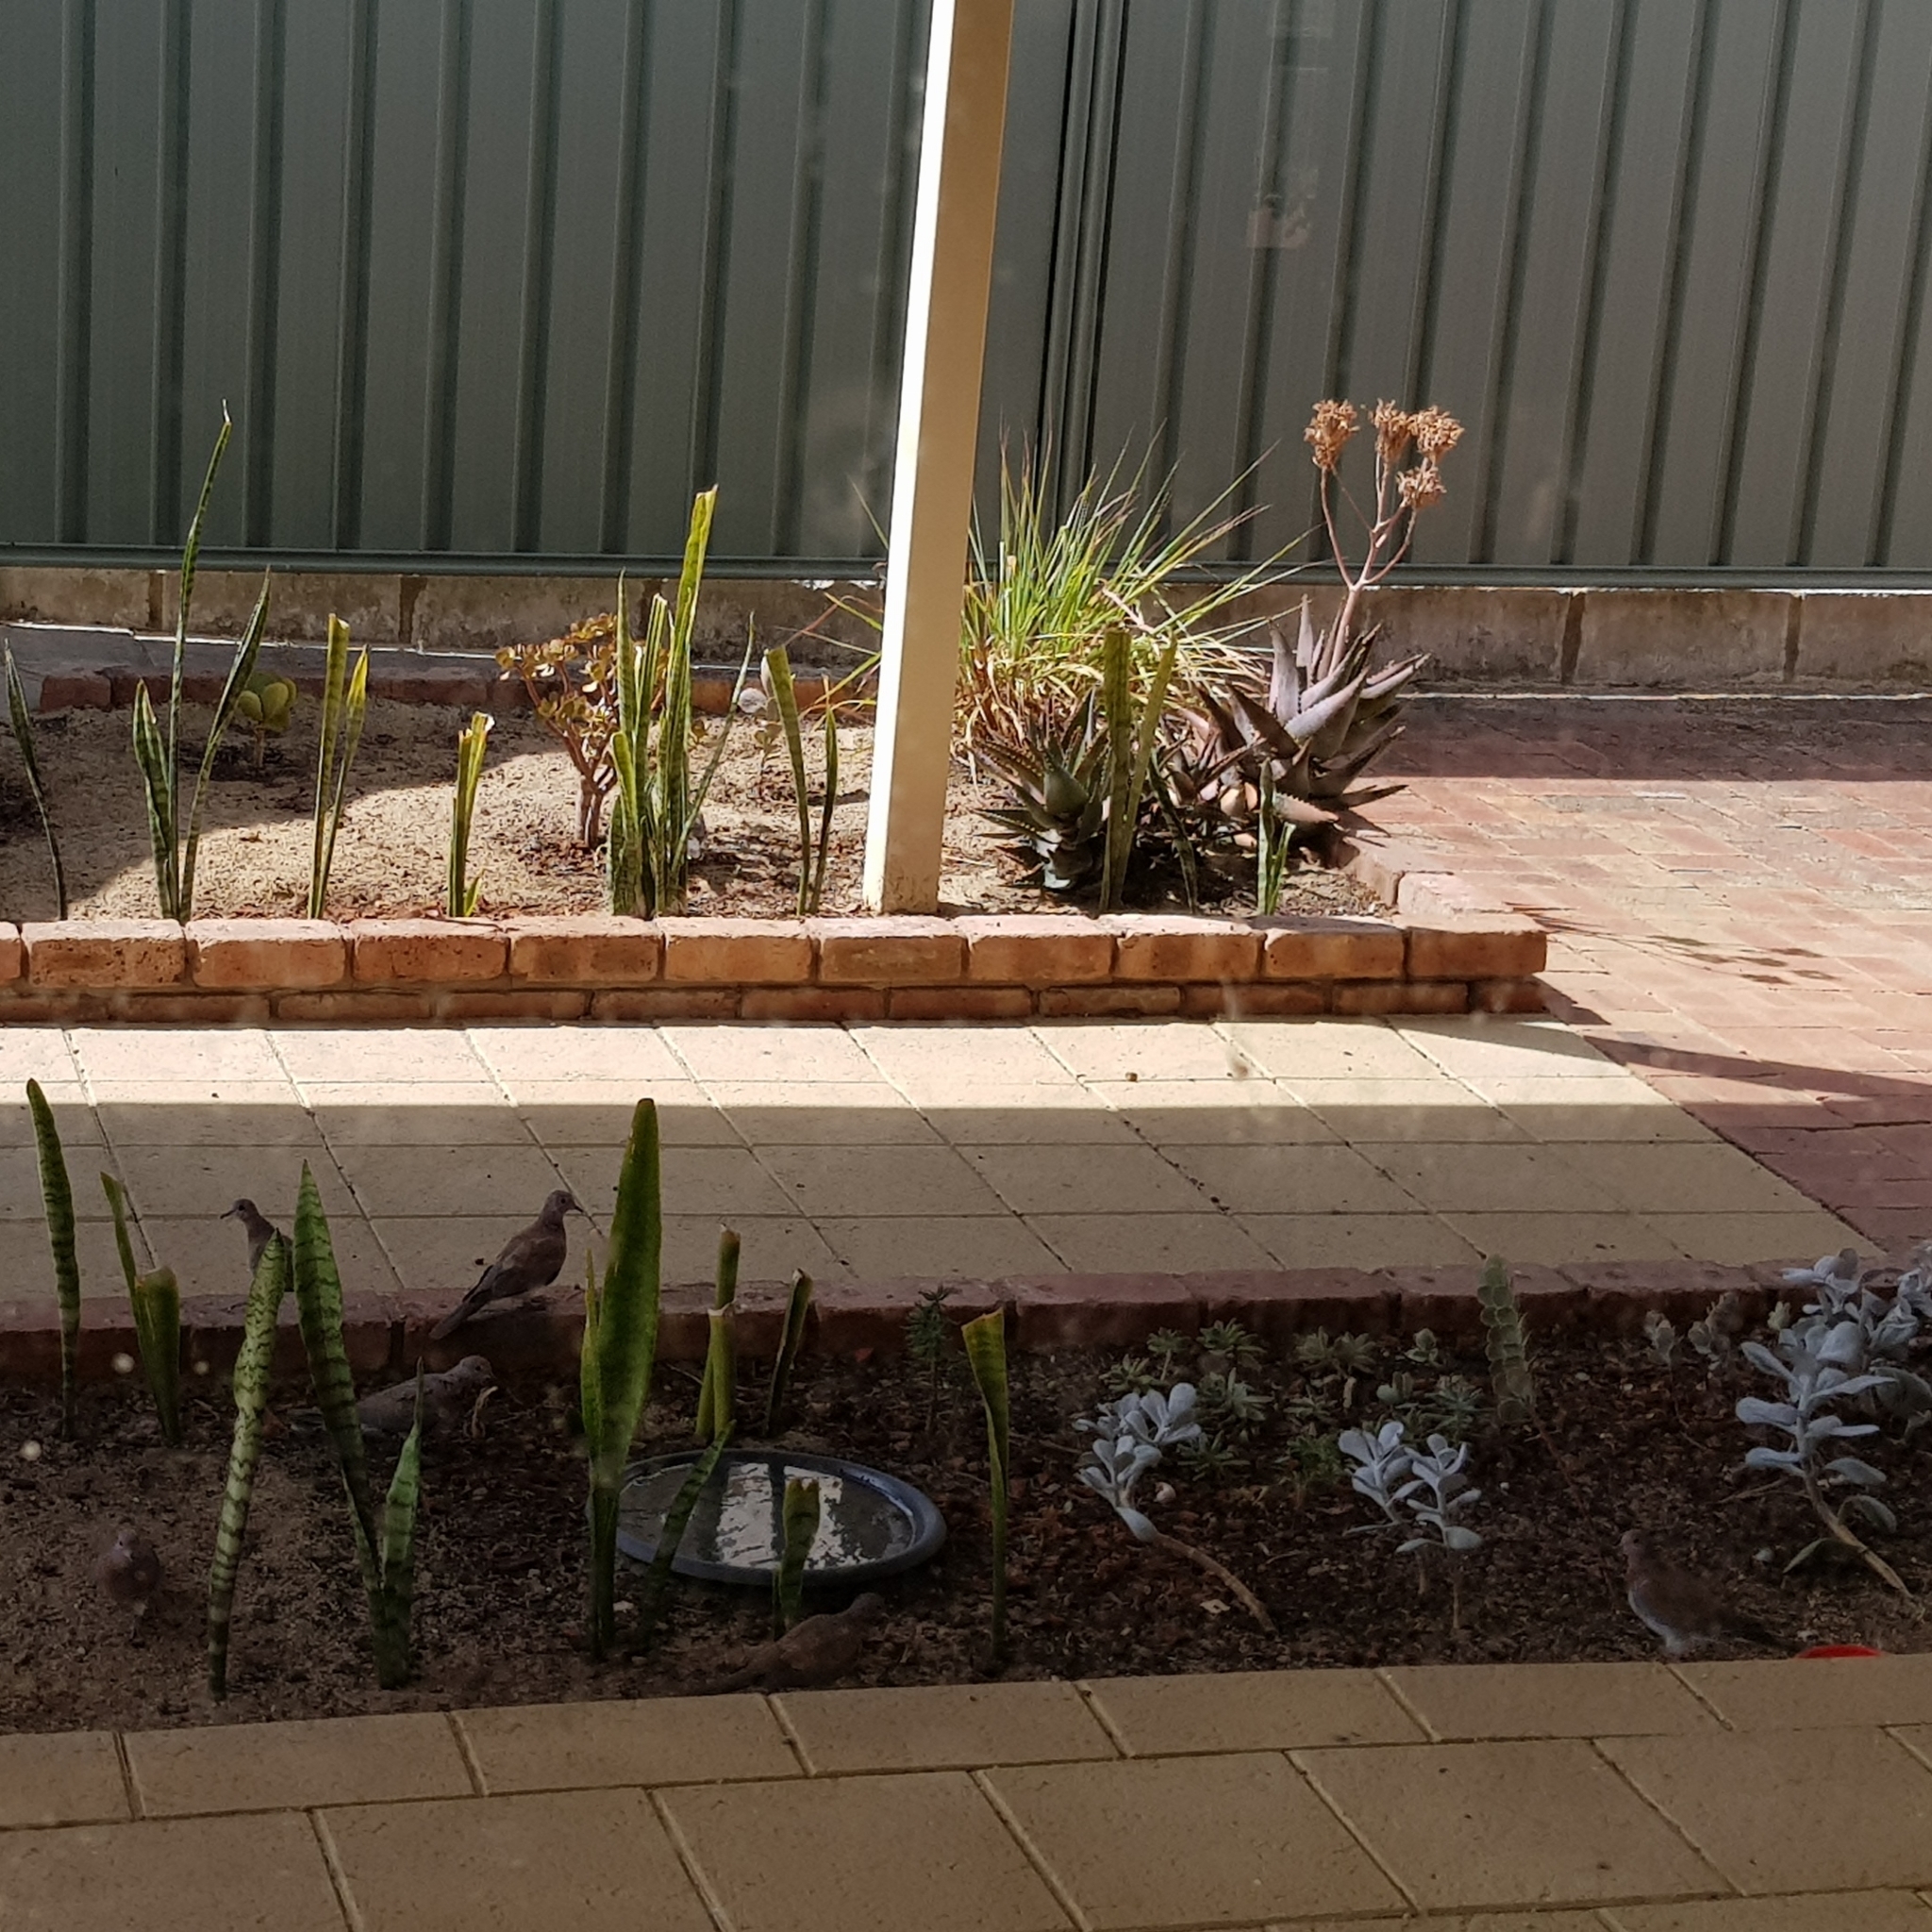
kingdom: Animalia
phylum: Chordata
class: Aves
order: Columbiformes
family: Columbidae
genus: Spilopelia
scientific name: Spilopelia senegalensis
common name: Laughing dove
